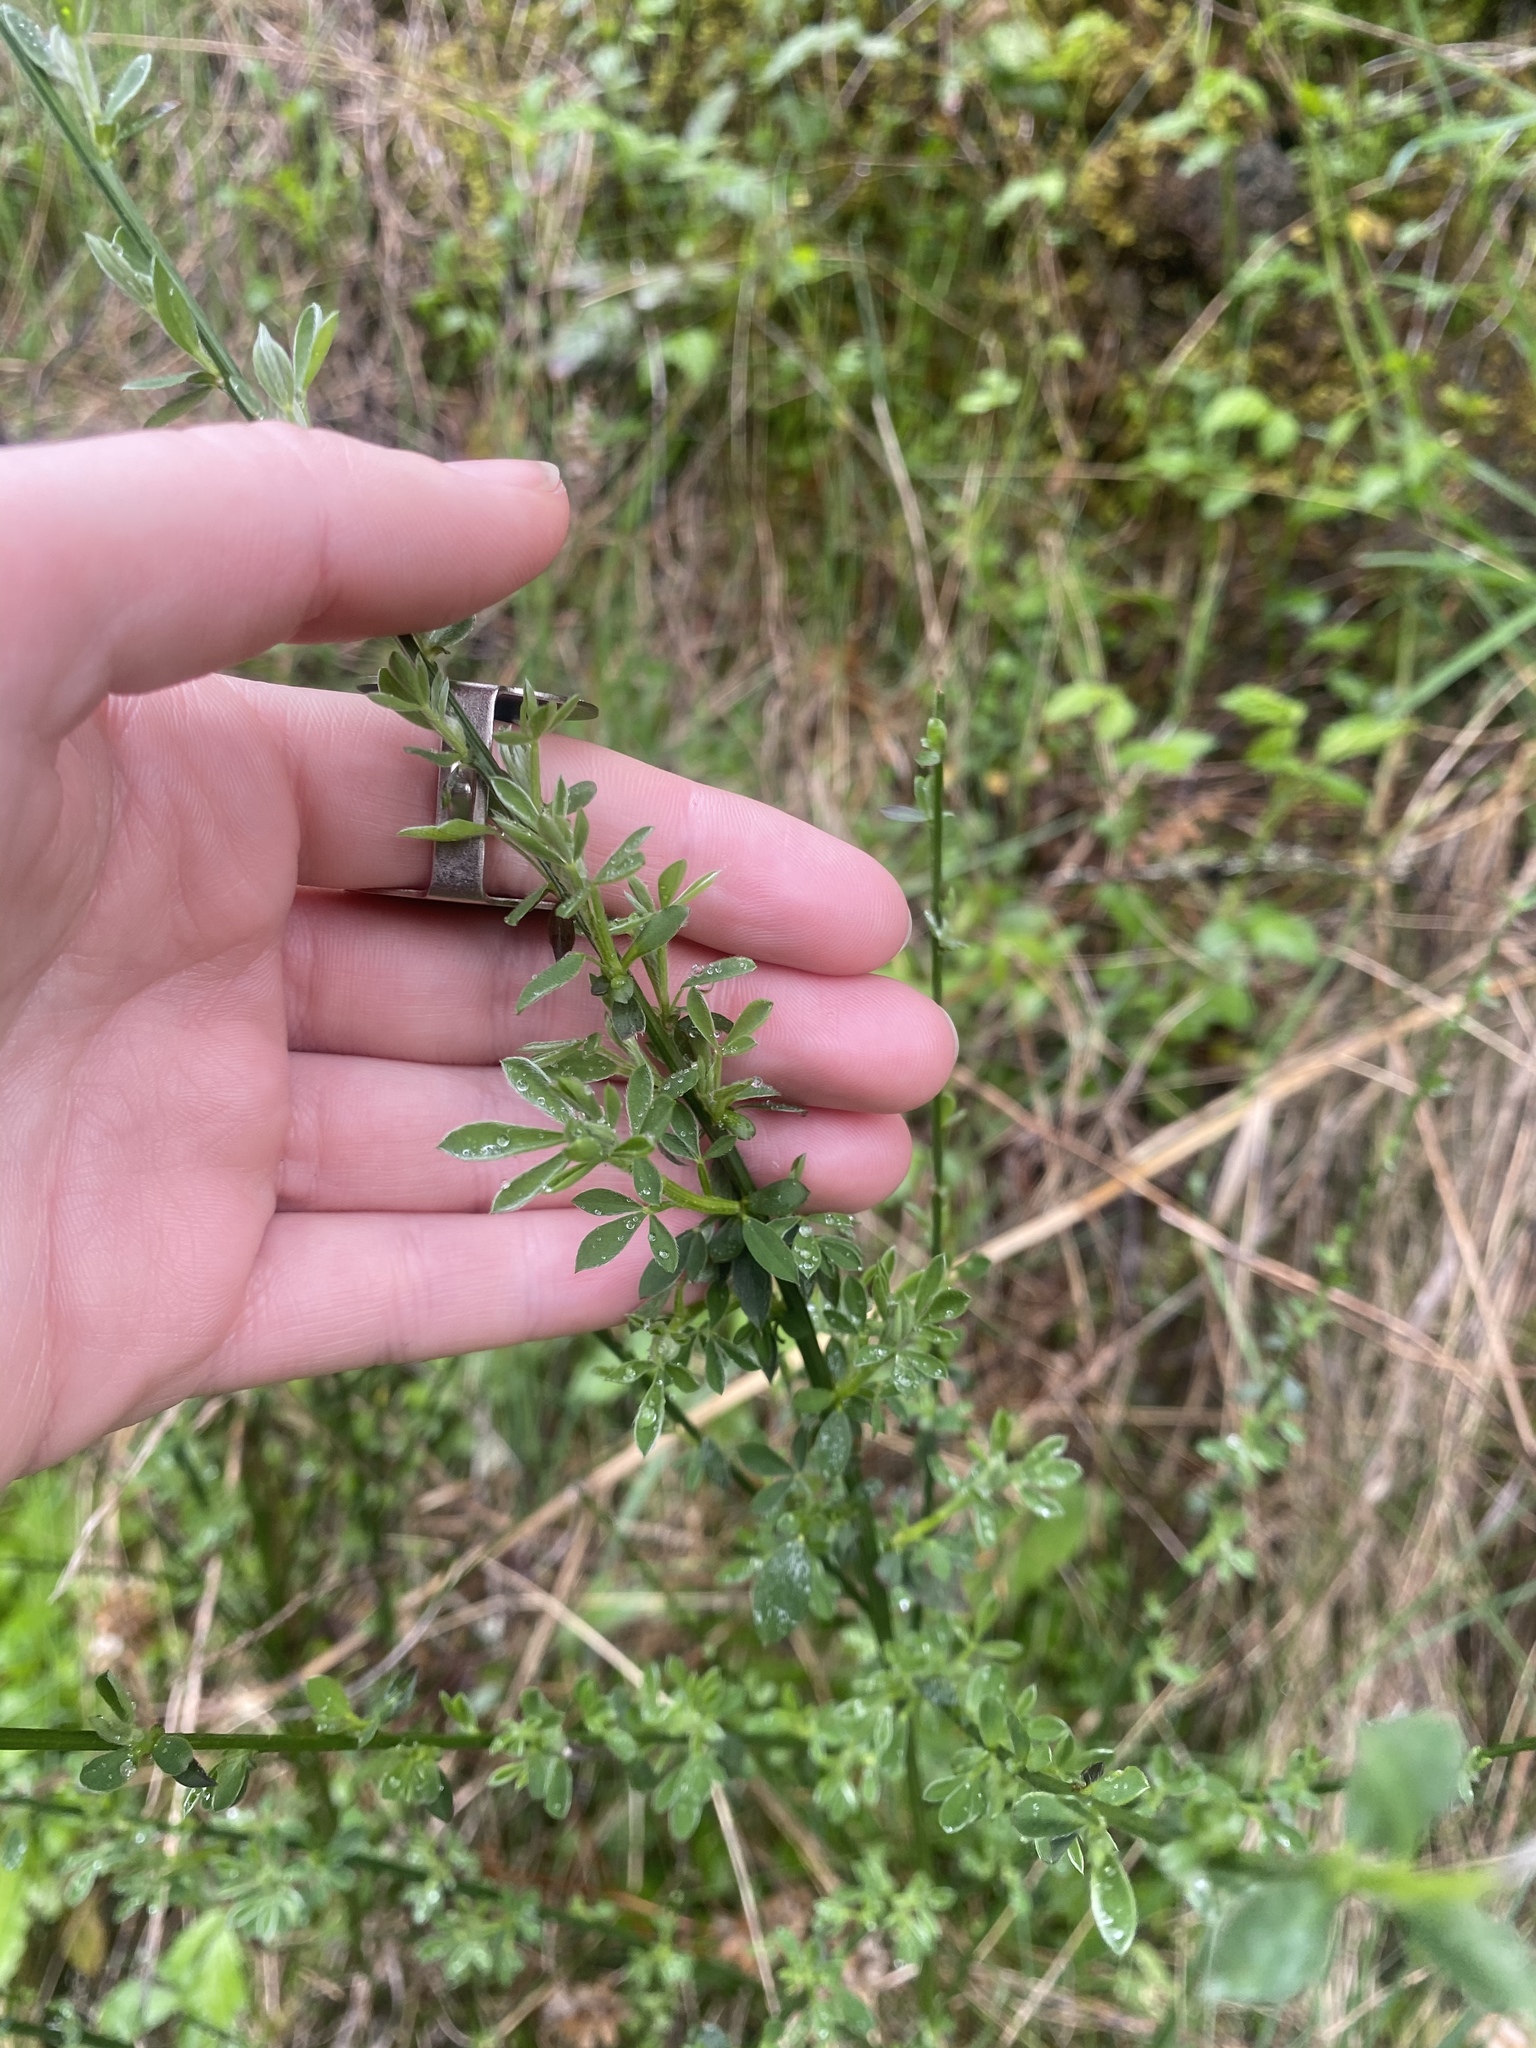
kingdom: Plantae
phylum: Tracheophyta
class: Magnoliopsida
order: Fabales
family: Fabaceae
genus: Cytisus
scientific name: Cytisus scoparius
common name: Scotch broom
